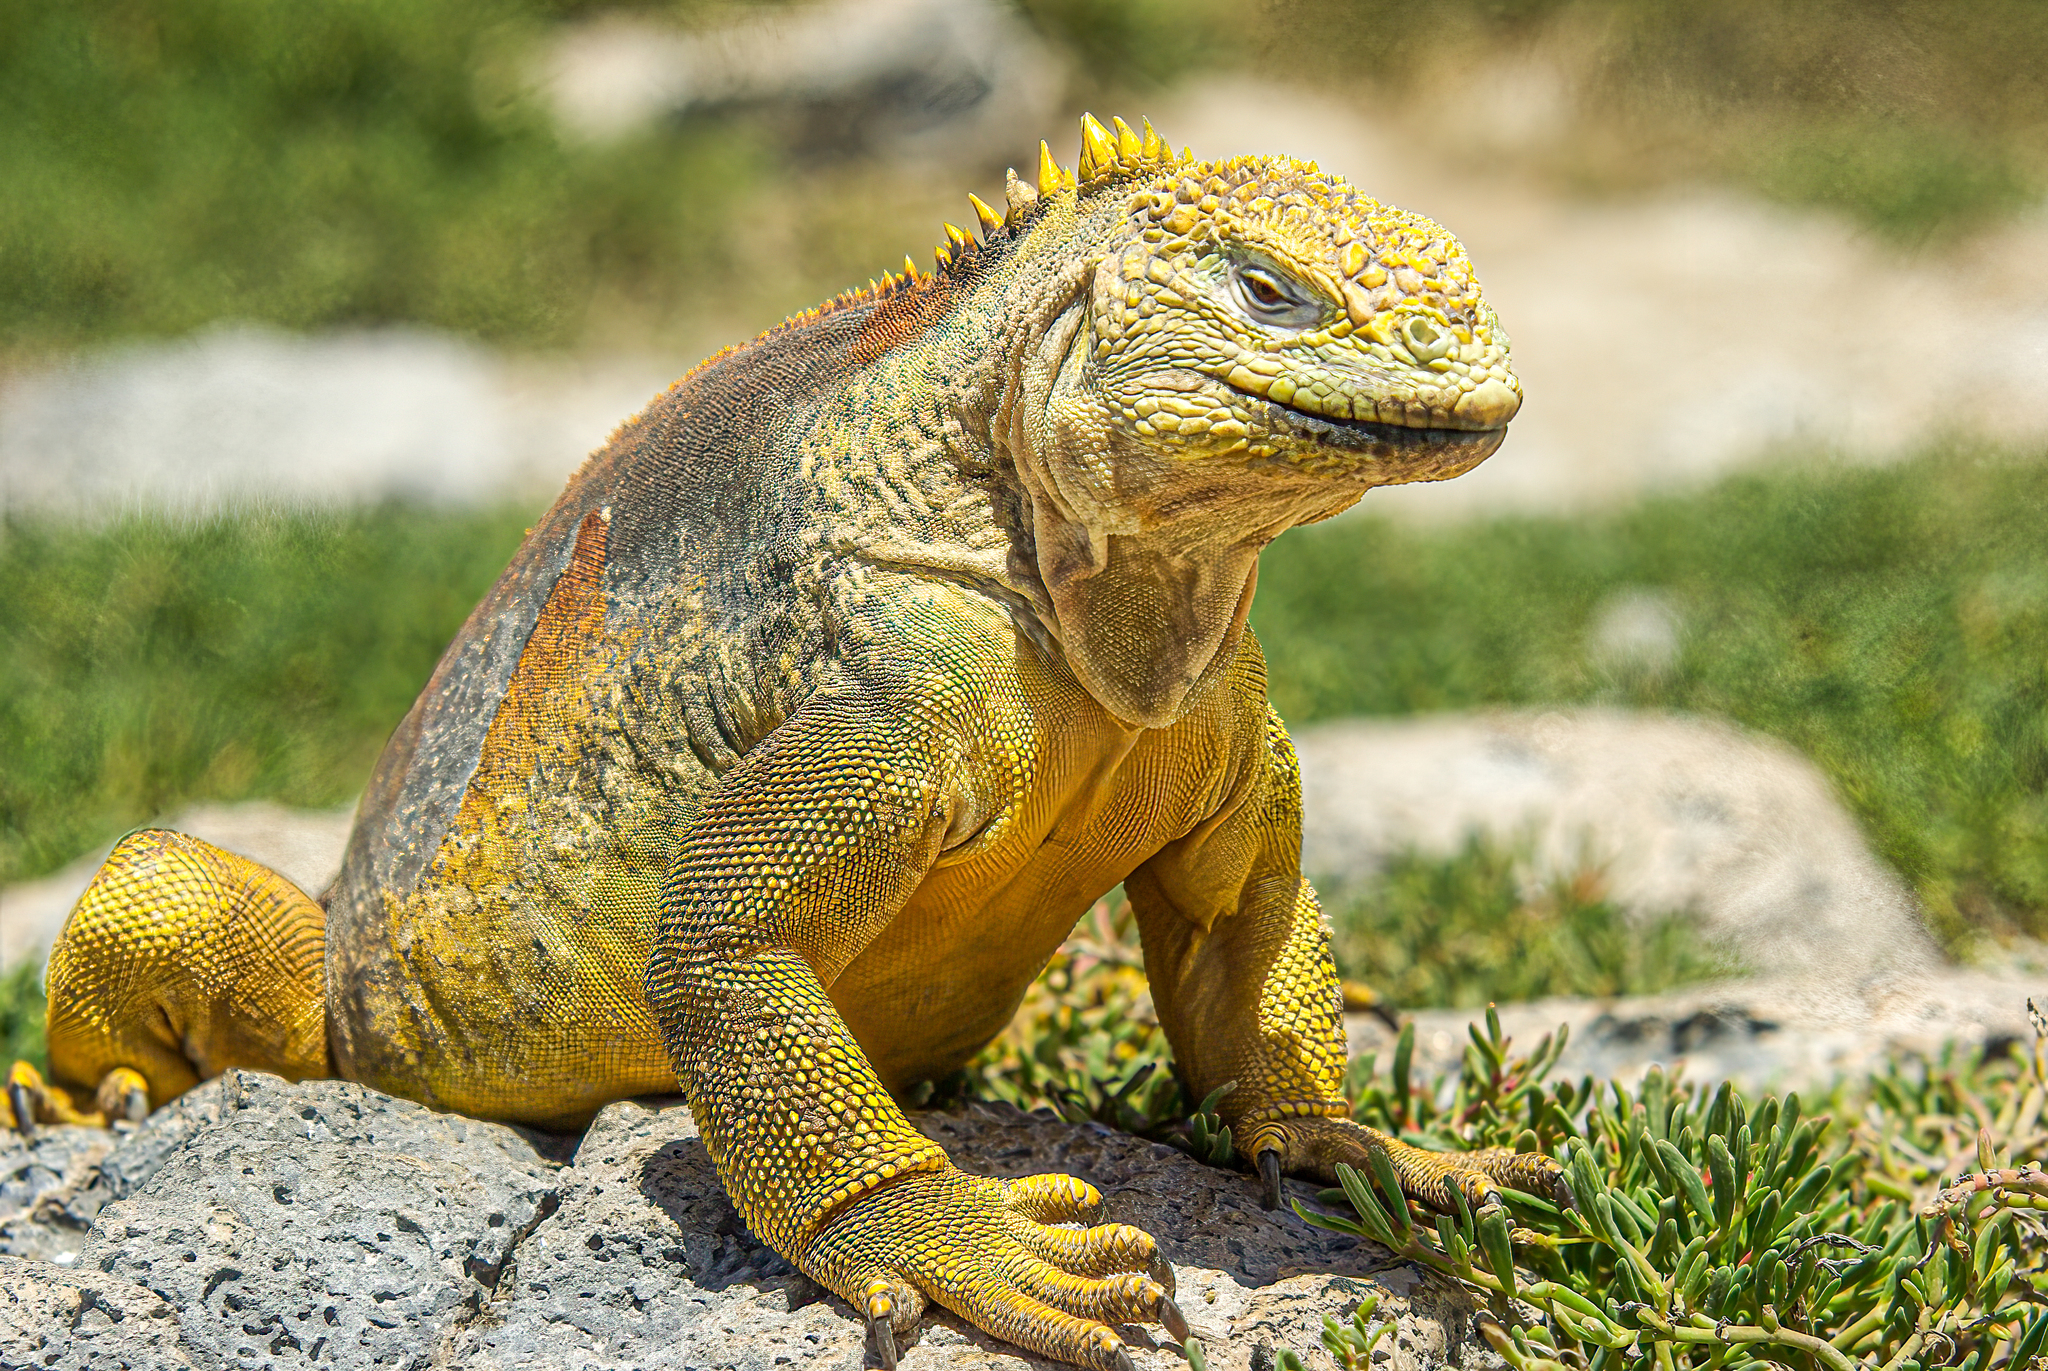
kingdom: Animalia
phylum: Chordata
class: Squamata
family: Iguanidae
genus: Conolophus
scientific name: Conolophus subcristatus
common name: Galapagos land iguana
